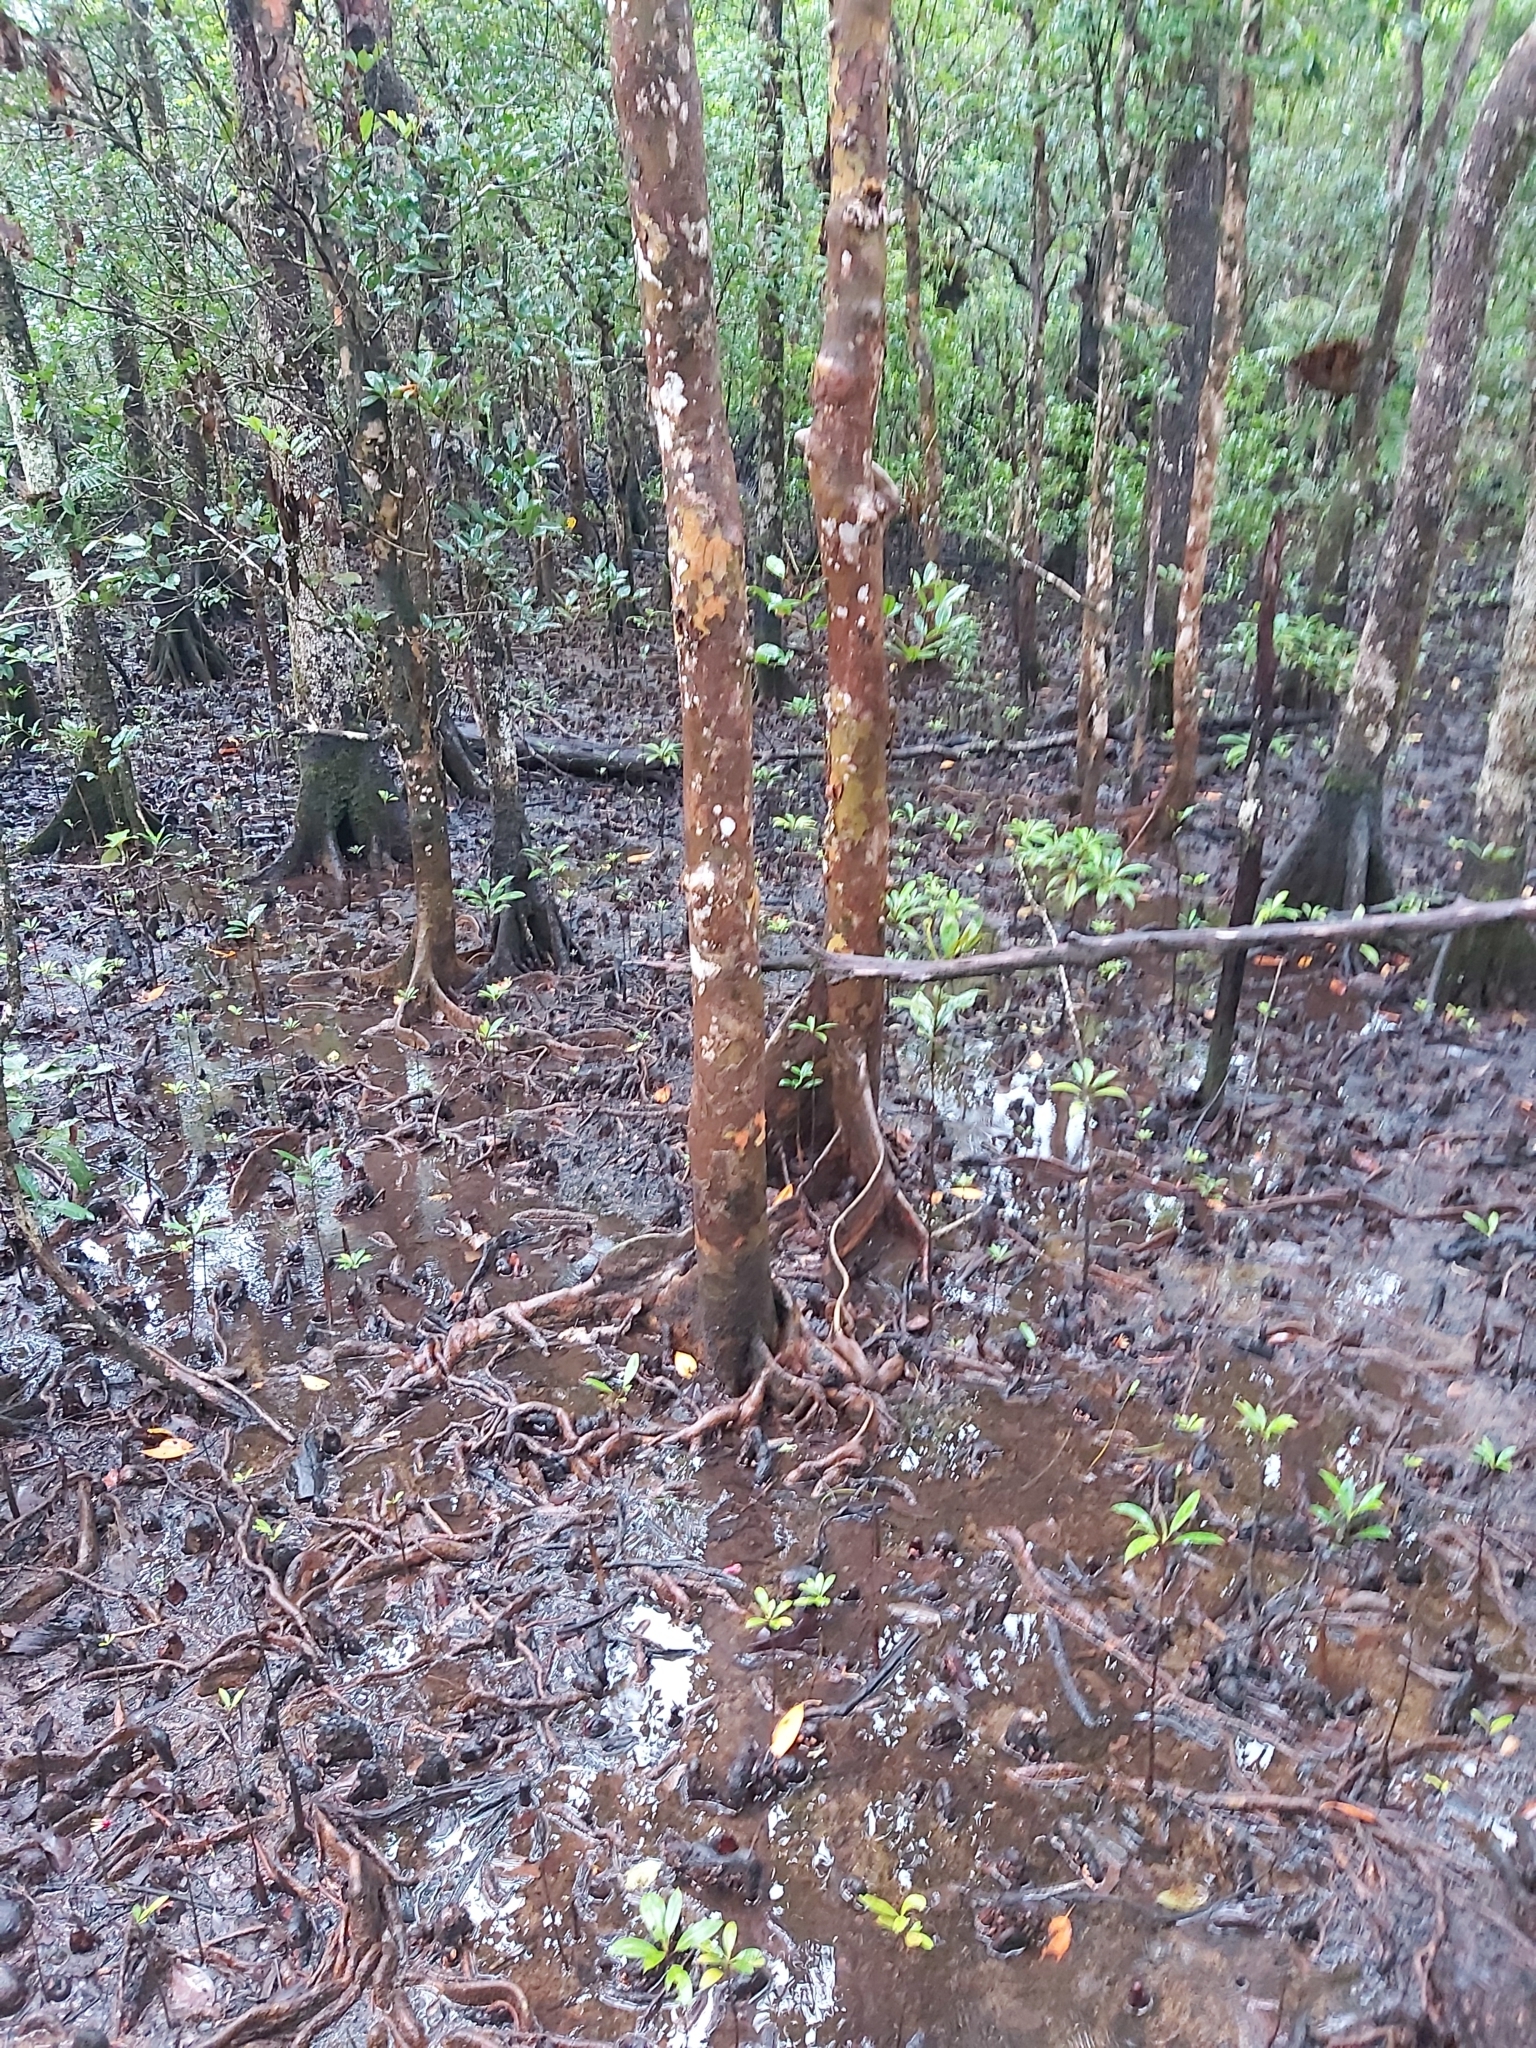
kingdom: Plantae
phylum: Tracheophyta
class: Magnoliopsida
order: Sapindales
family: Meliaceae
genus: Xylocarpus
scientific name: Xylocarpus granatum
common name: Apple mangrove
